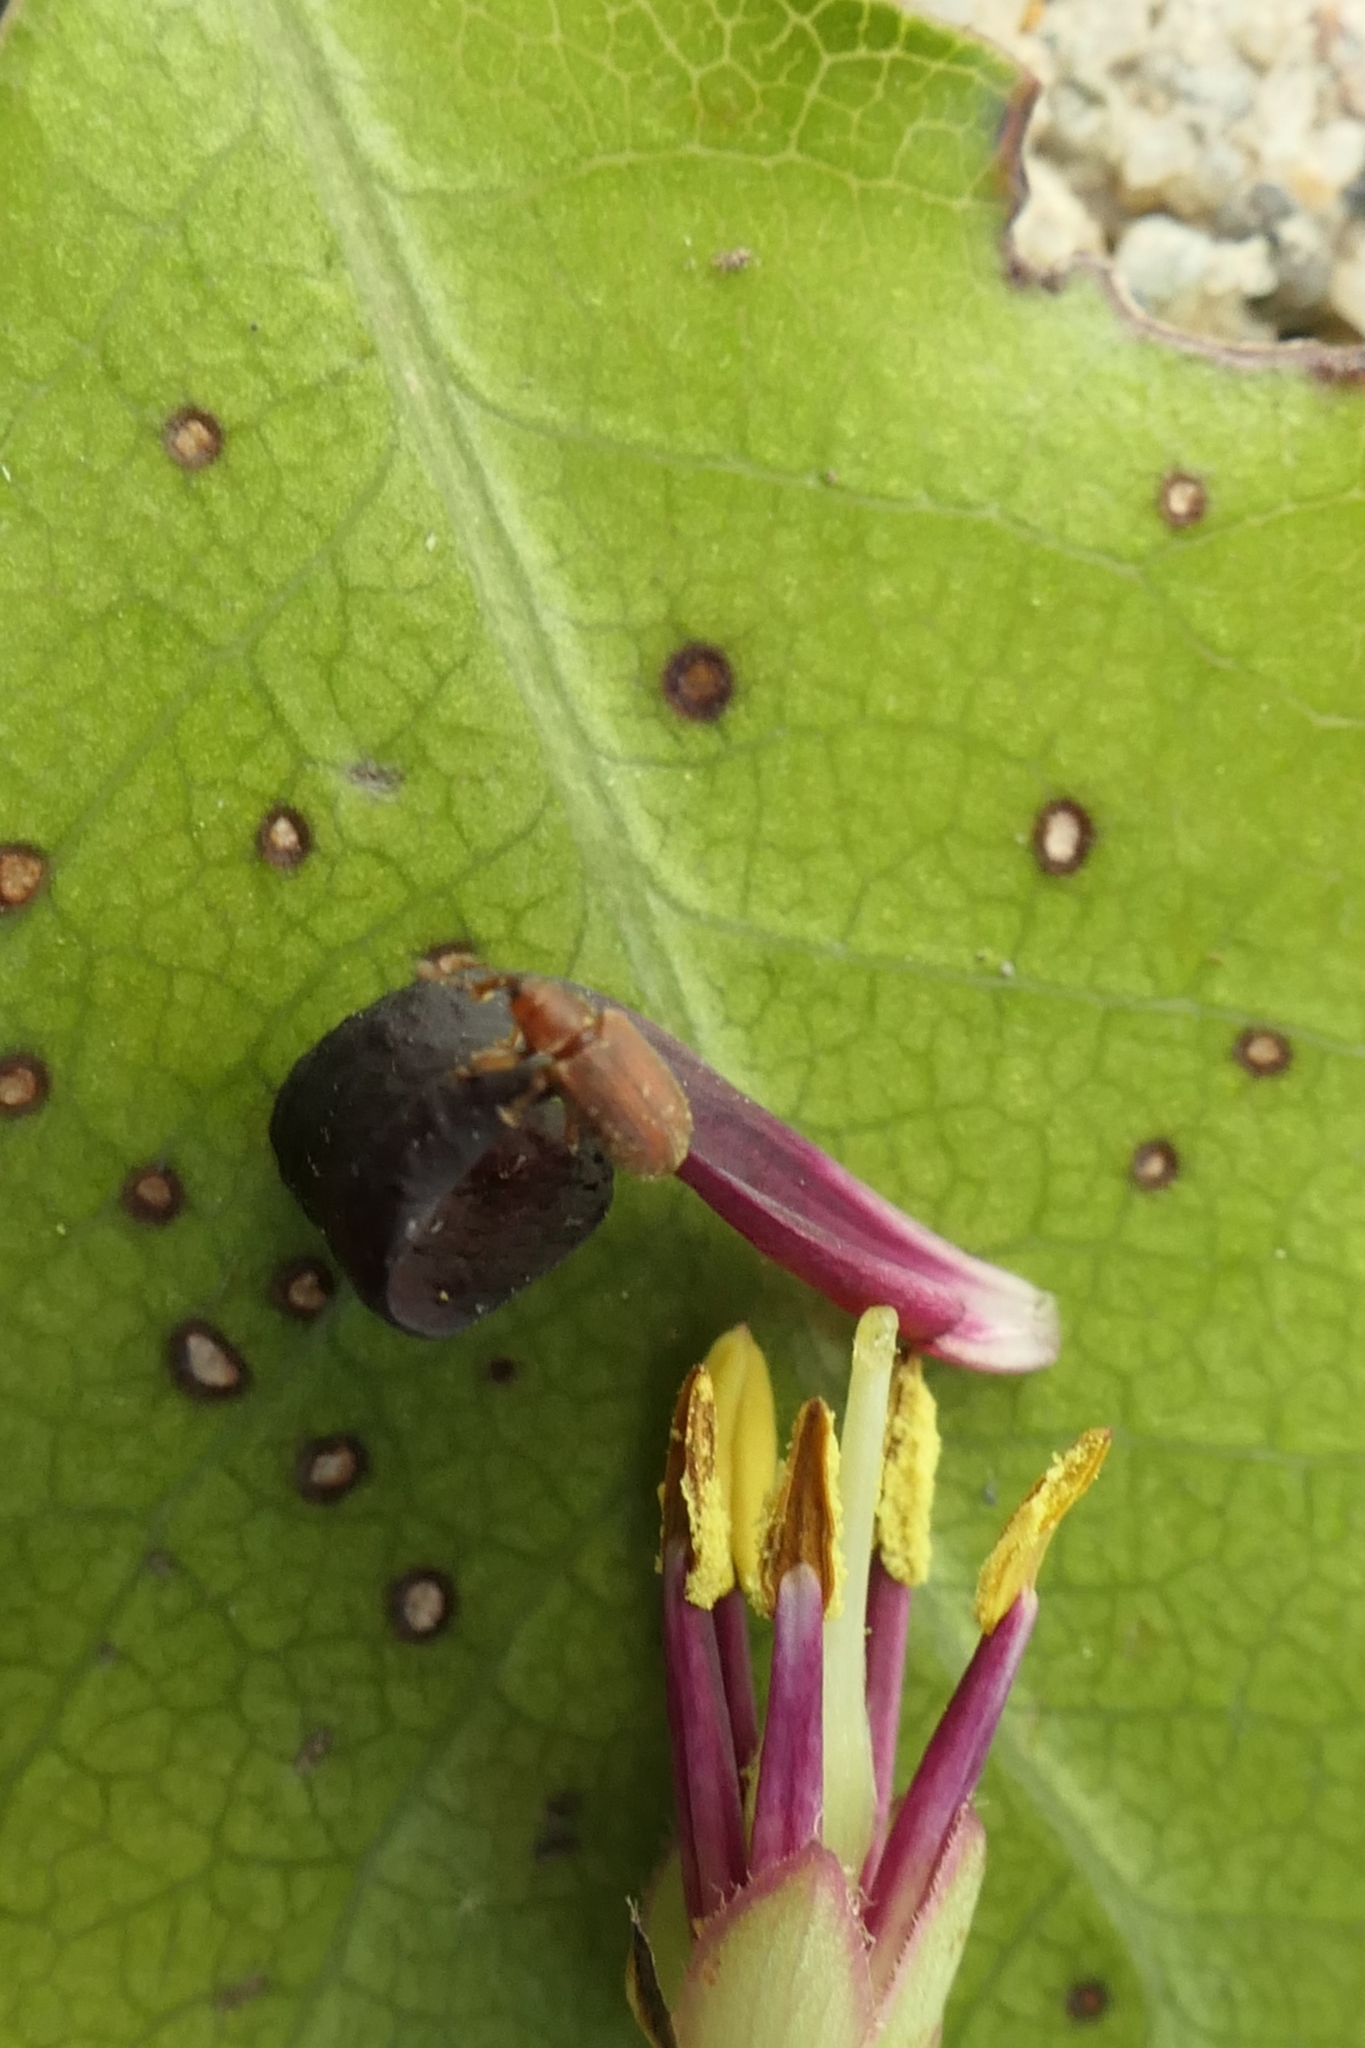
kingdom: Animalia
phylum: Arthropoda
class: Insecta
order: Coleoptera
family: Curculionidae
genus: Aneuma
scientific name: Aneuma
